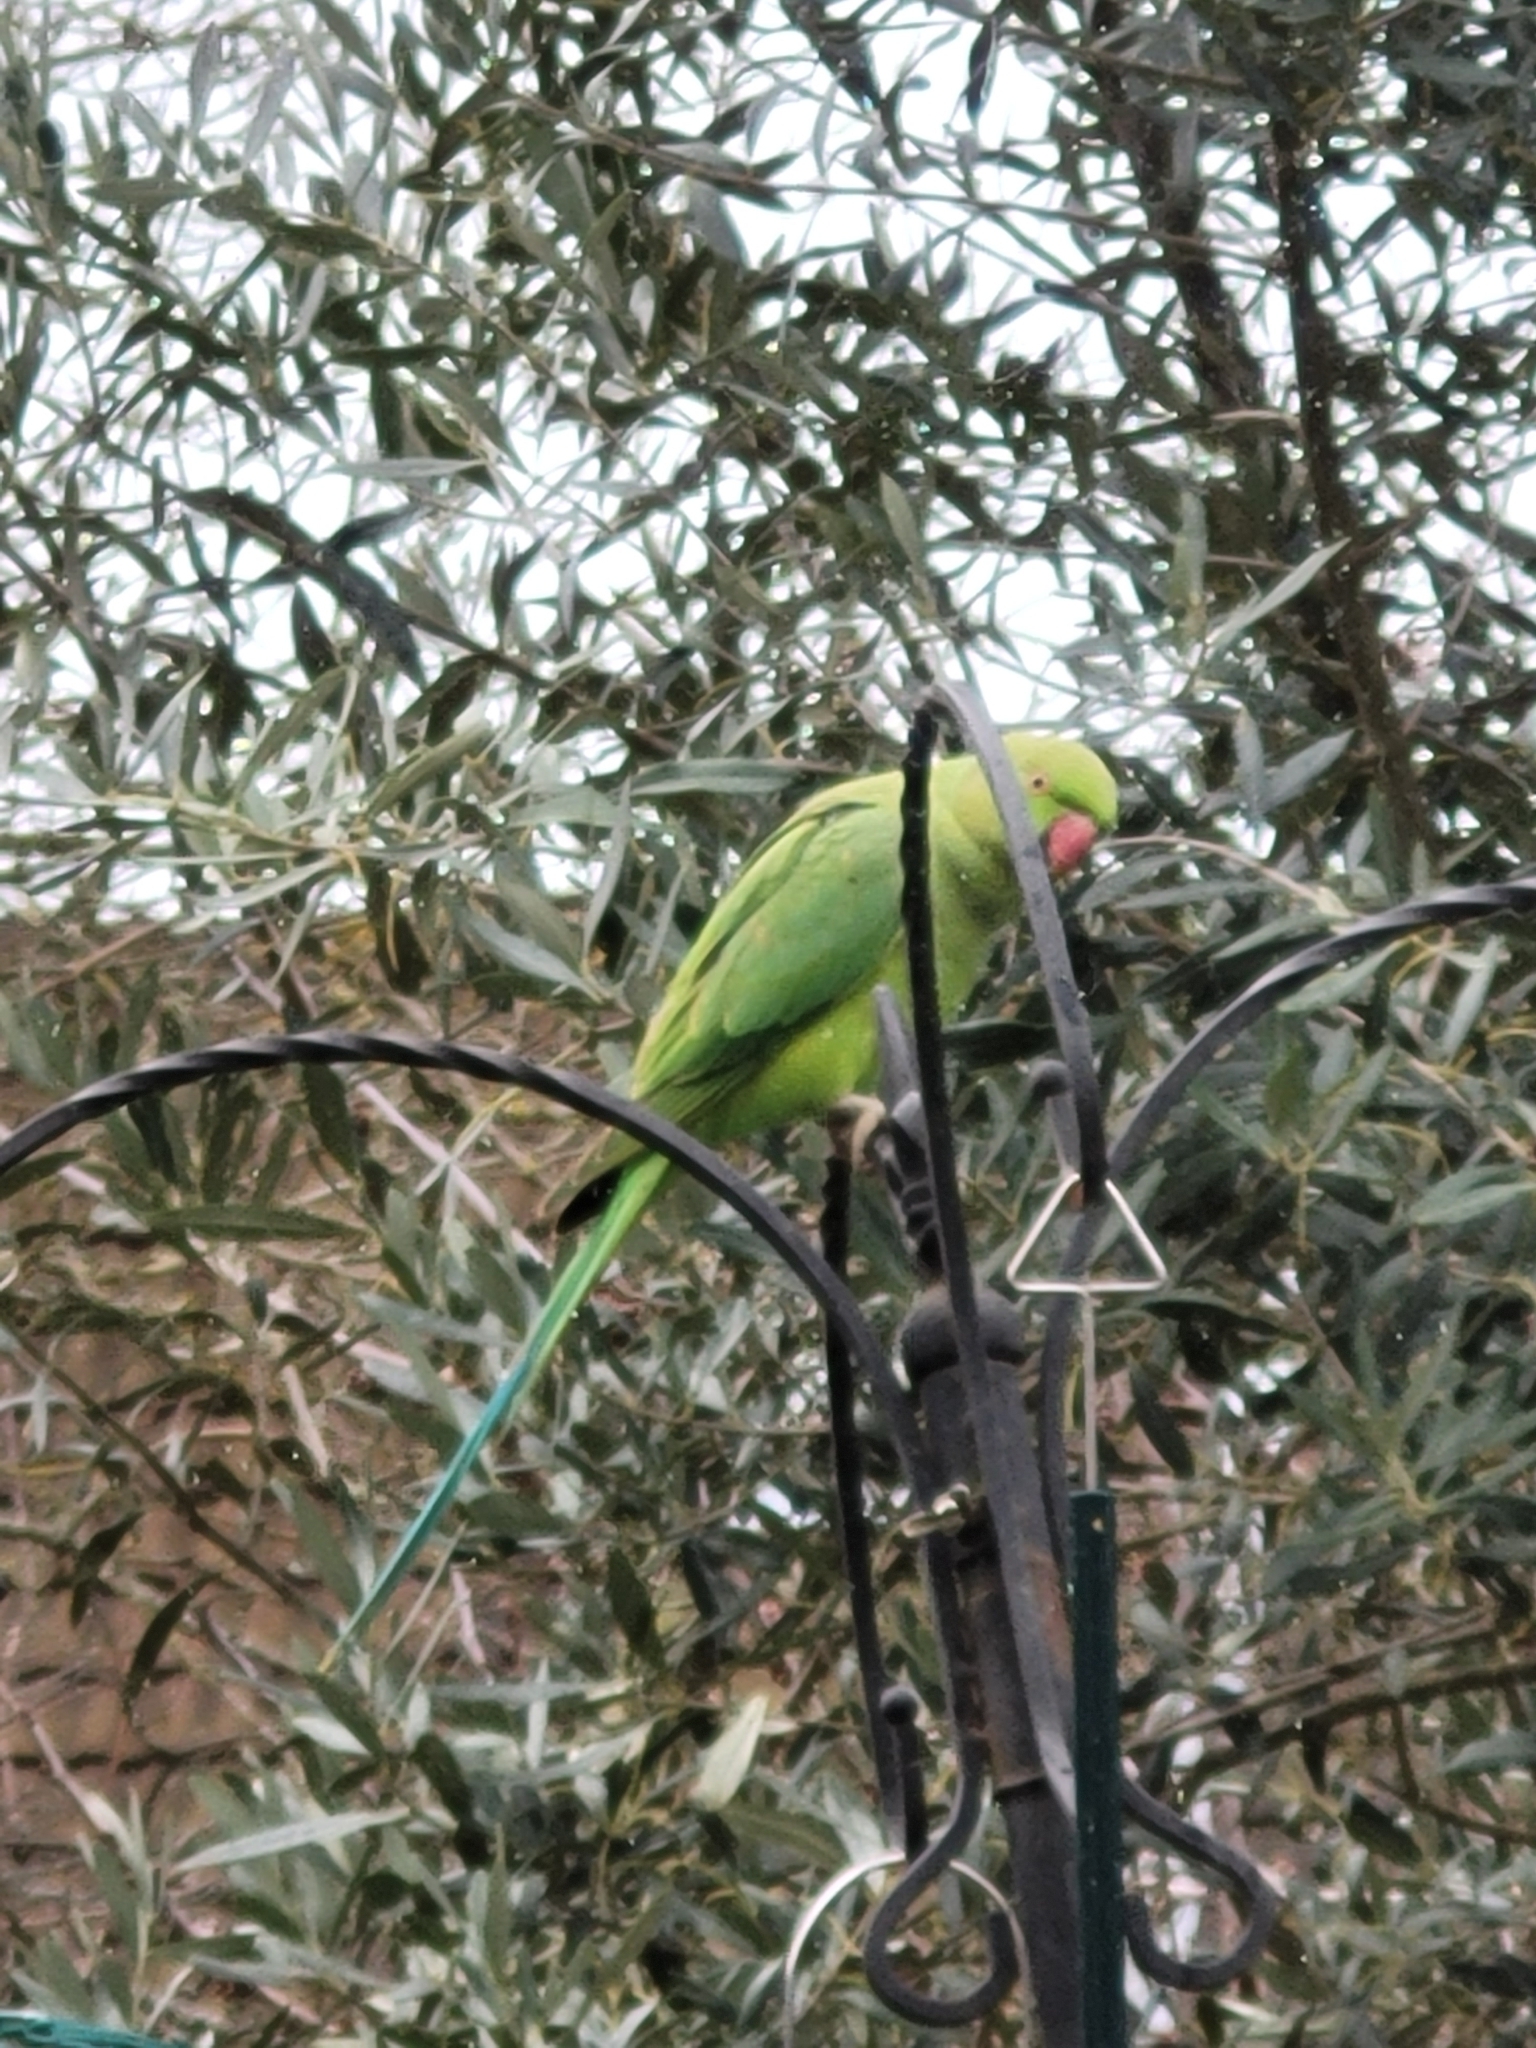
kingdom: Animalia
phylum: Chordata
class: Aves
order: Psittaciformes
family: Psittacidae
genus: Psittacula
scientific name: Psittacula krameri
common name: Rose-ringed parakeet
